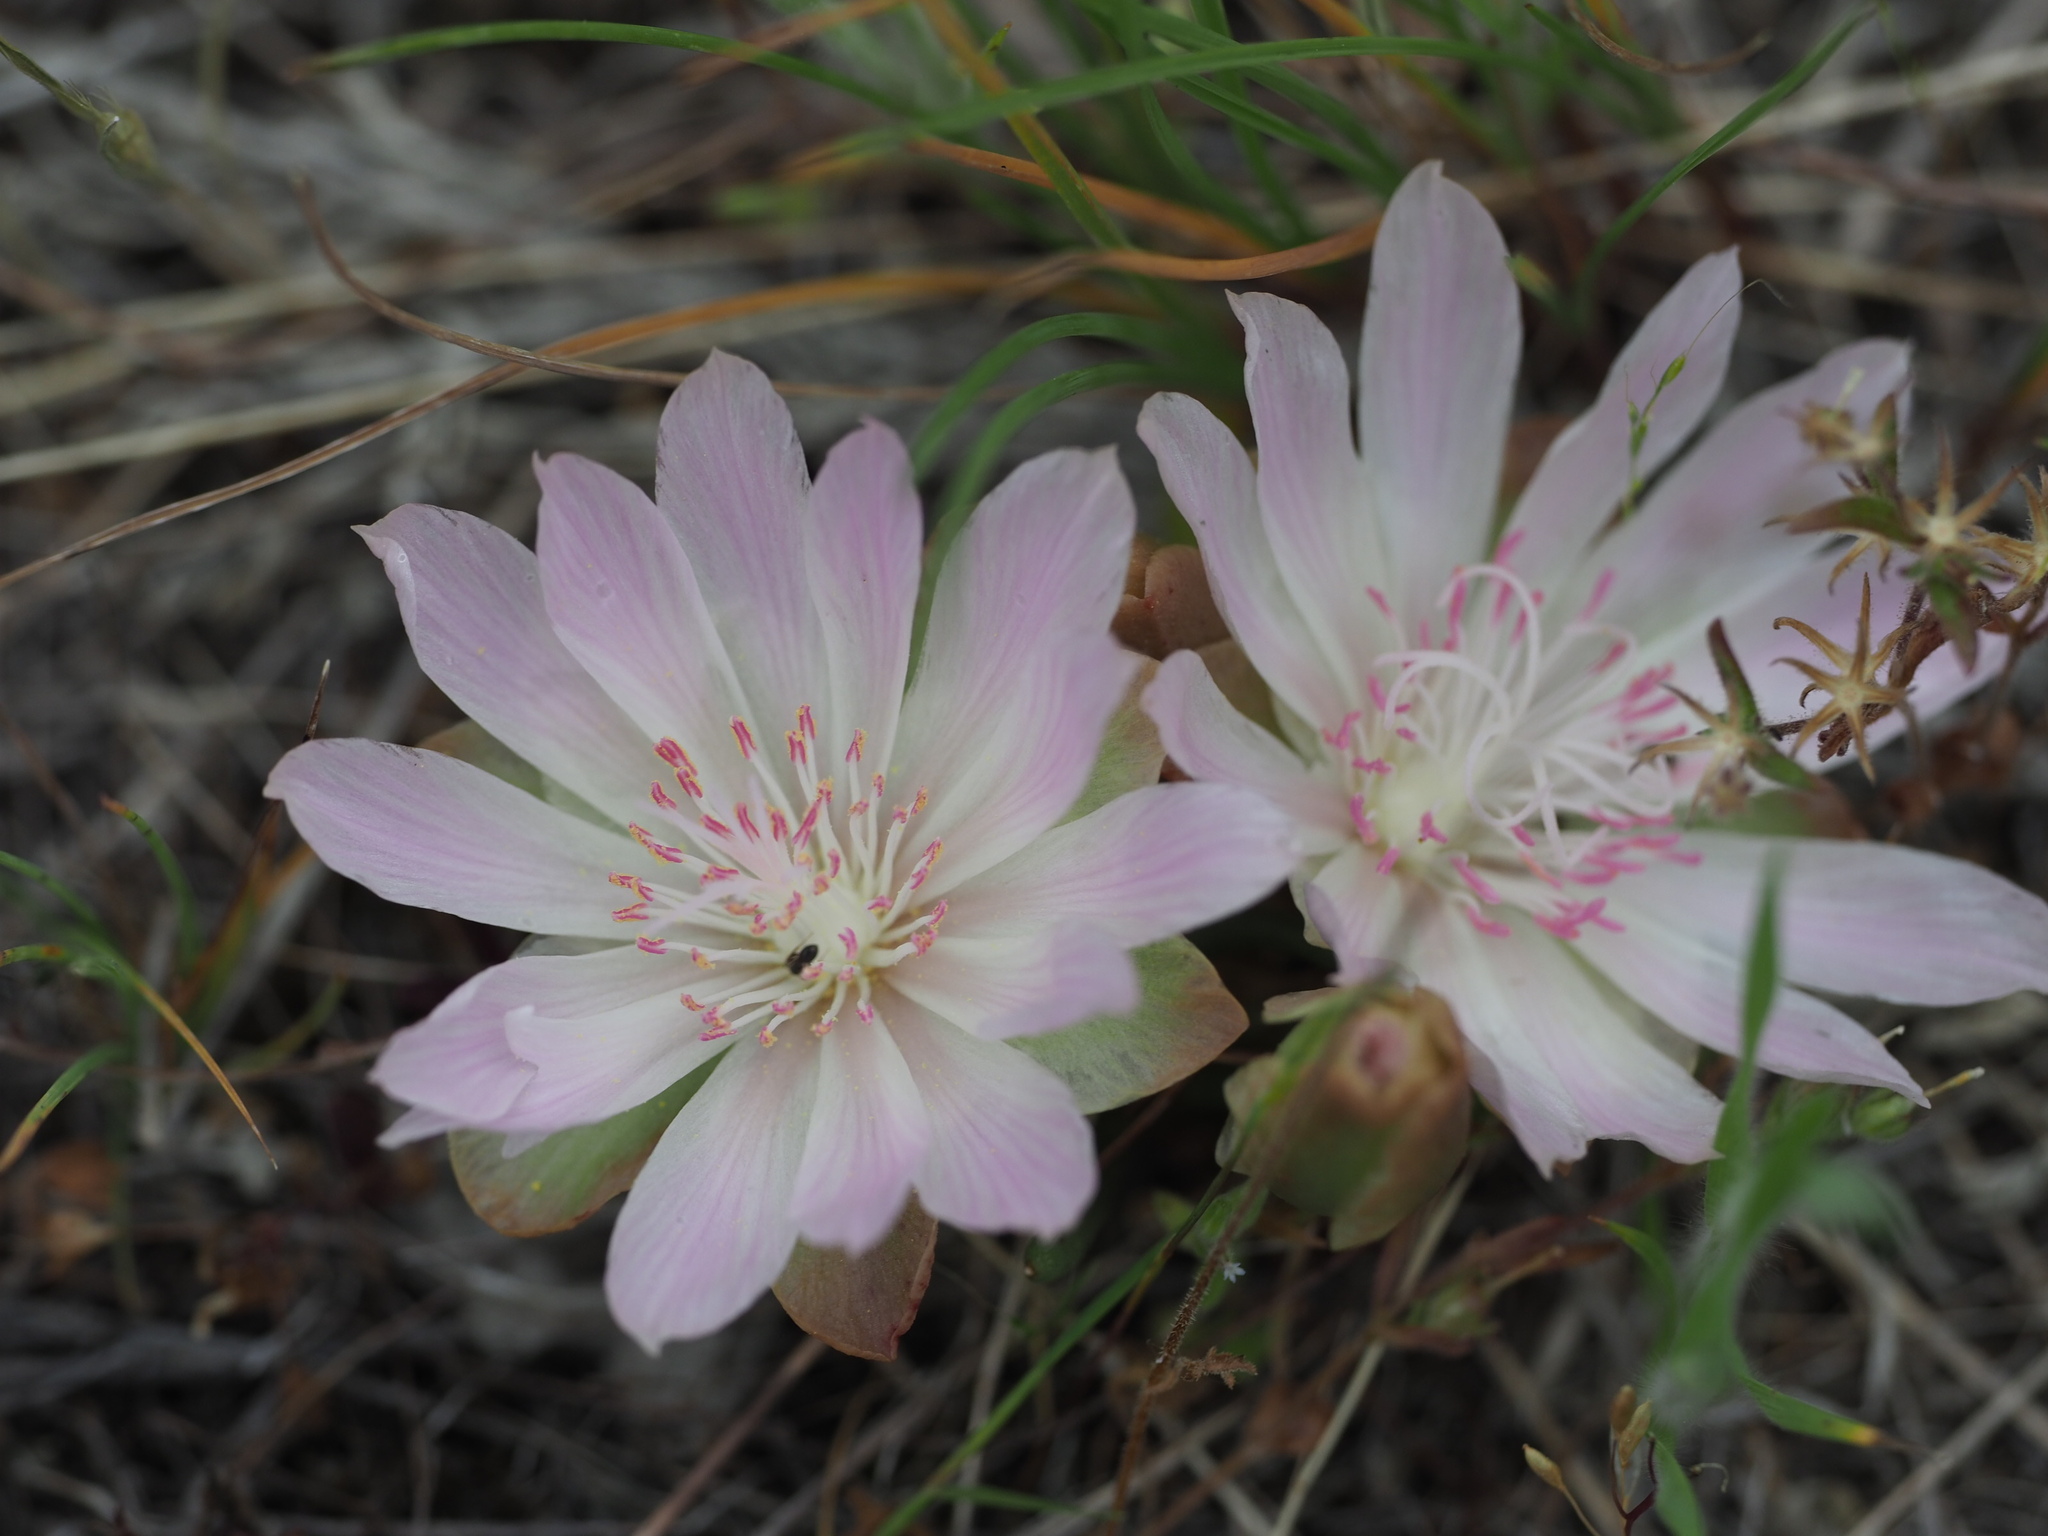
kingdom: Plantae
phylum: Tracheophyta
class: Magnoliopsida
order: Caryophyllales
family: Montiaceae
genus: Lewisia
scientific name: Lewisia rediviva
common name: Bitter-root
